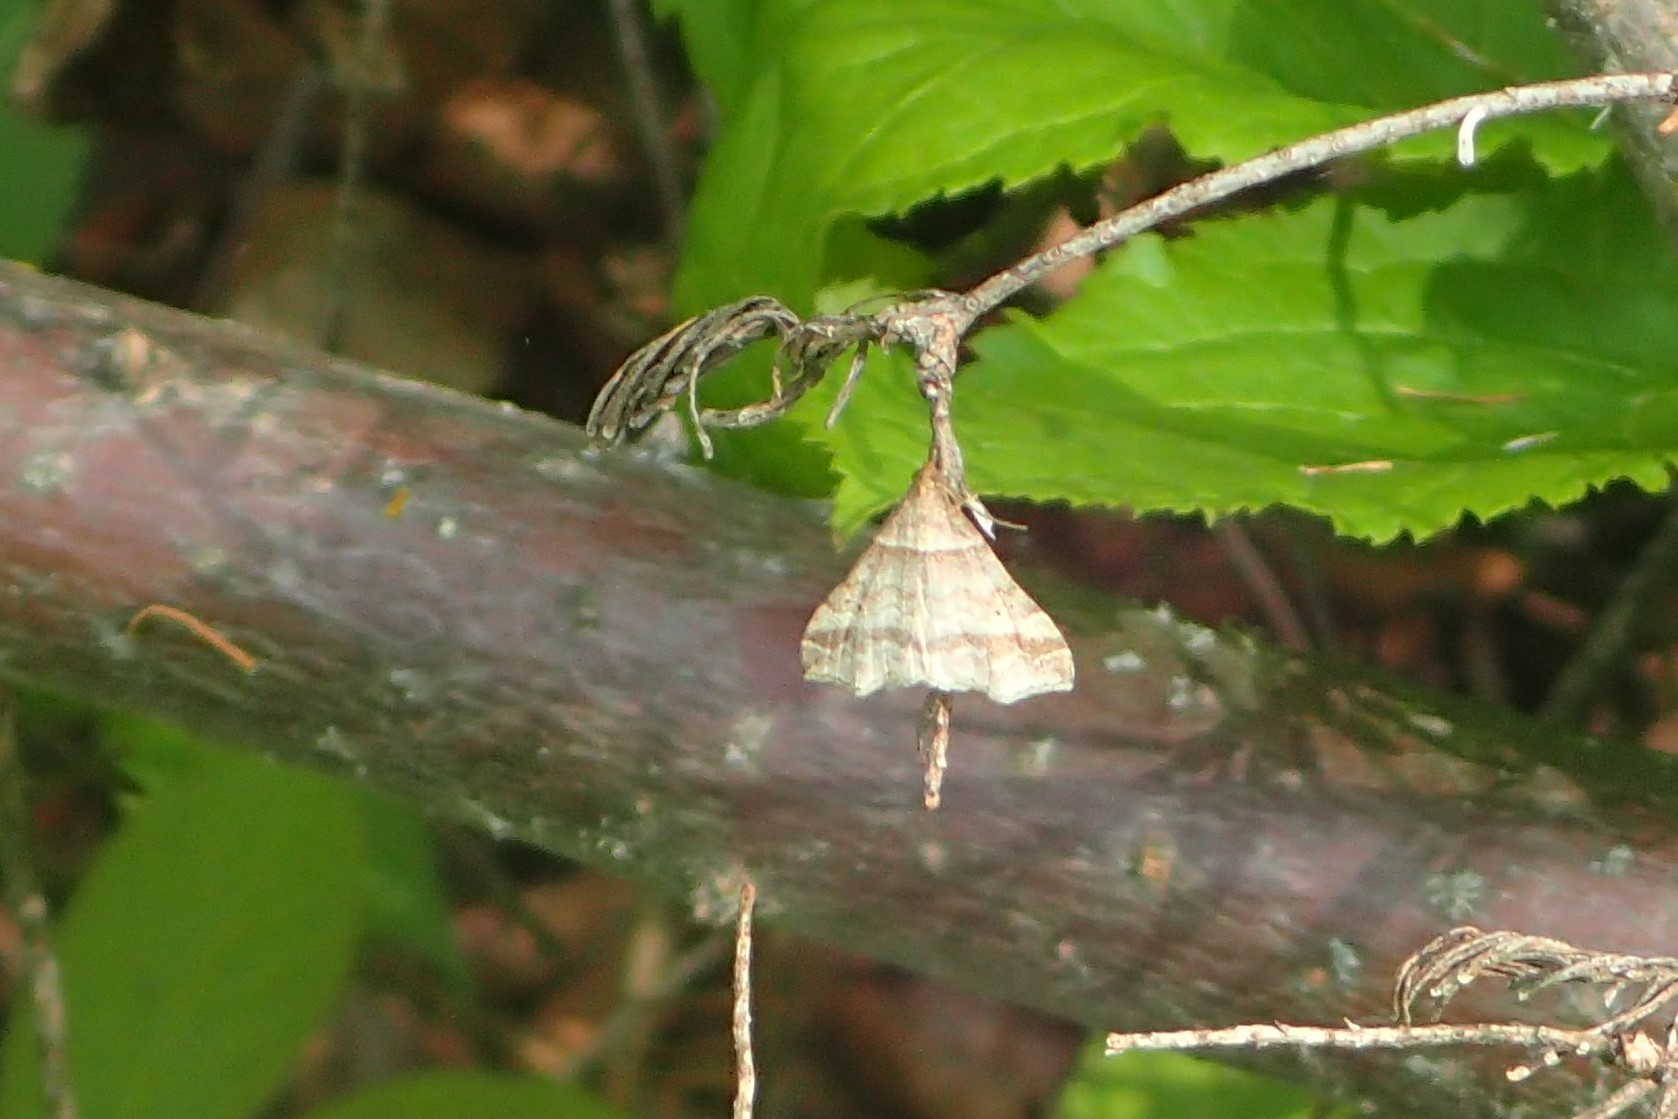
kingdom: Animalia
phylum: Arthropoda
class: Insecta
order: Lepidoptera
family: Erebidae
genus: Phaeolita
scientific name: Phaeolita pyramusalis
